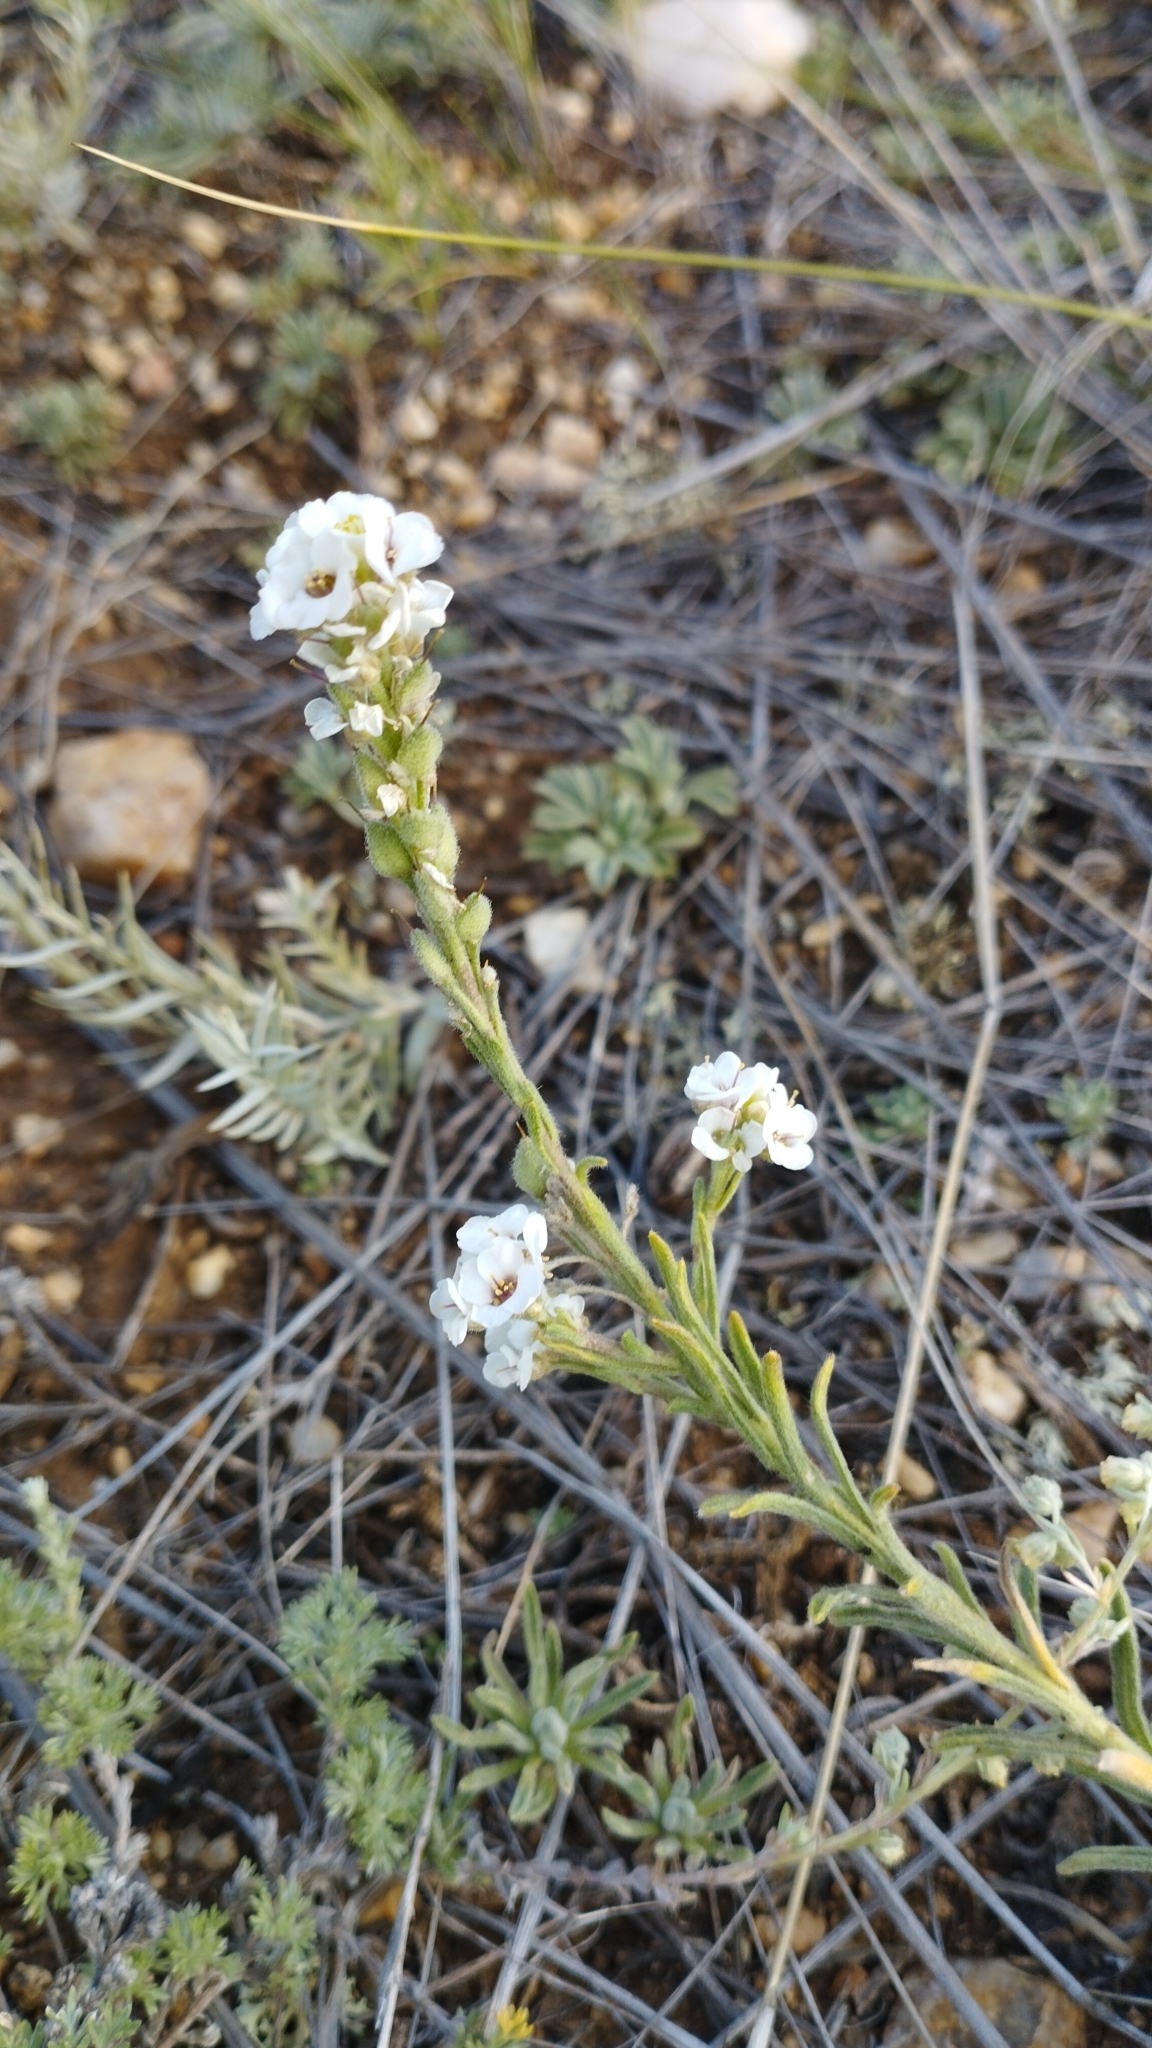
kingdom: Plantae
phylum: Tracheophyta
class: Magnoliopsida
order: Brassicales
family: Brassicaceae
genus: Stevenia
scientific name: Stevenia tenuifolia
